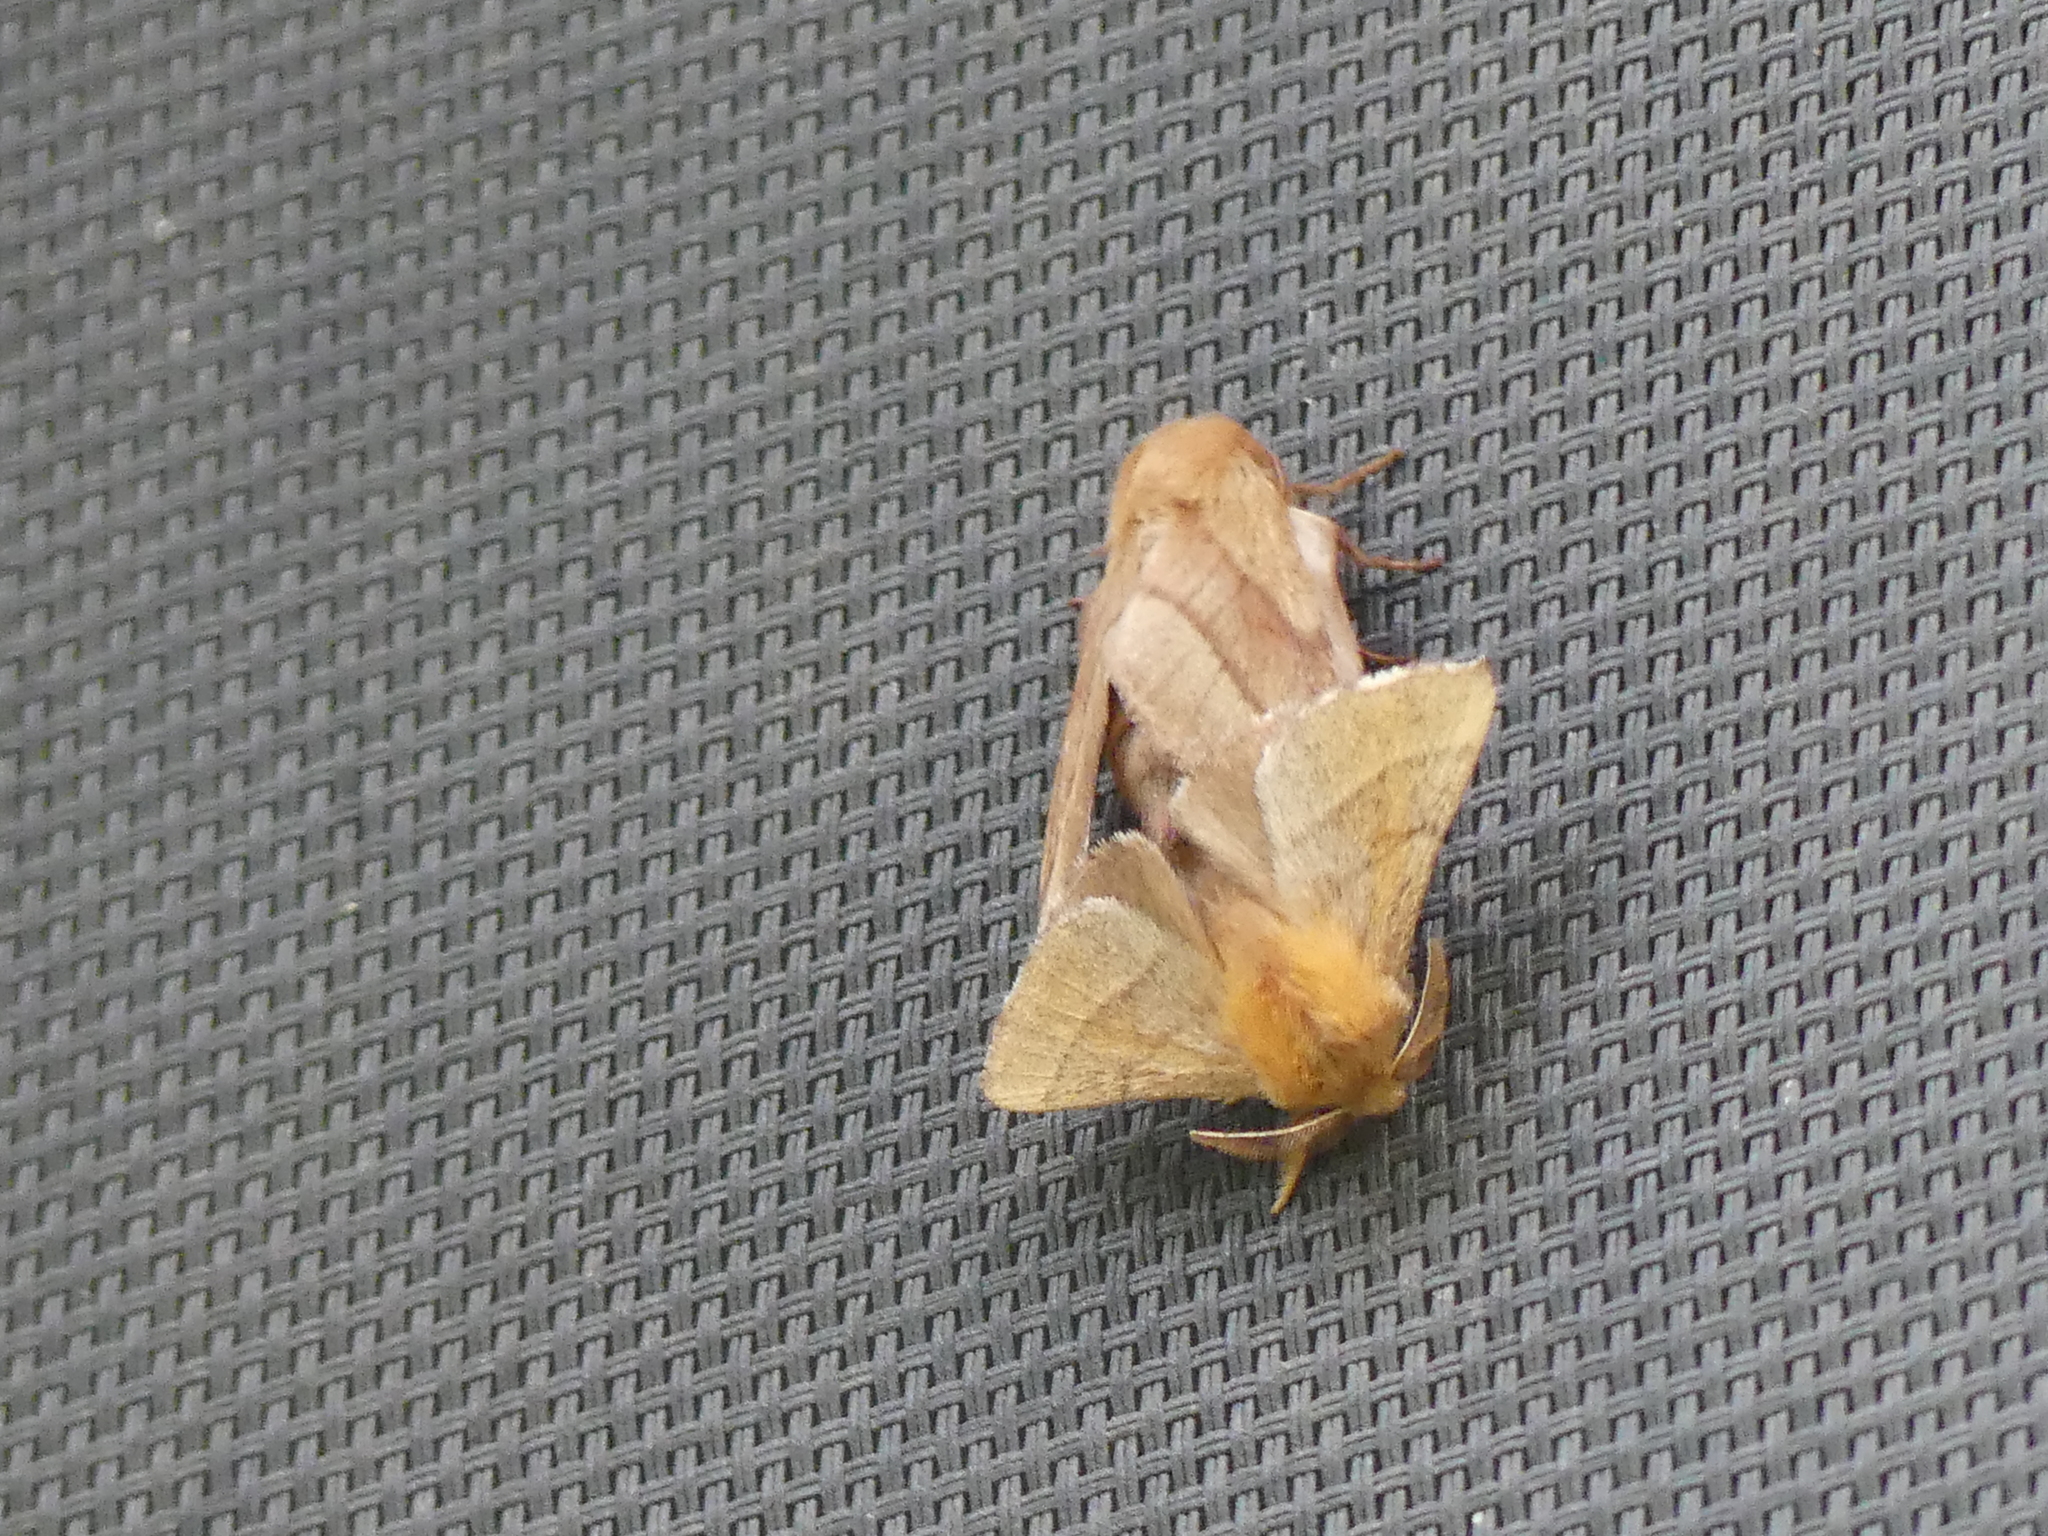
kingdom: Animalia
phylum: Arthropoda
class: Insecta
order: Lepidoptera
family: Lasiocampidae
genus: Malacosoma
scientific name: Malacosoma disstria
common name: Forest tent caterpillar
